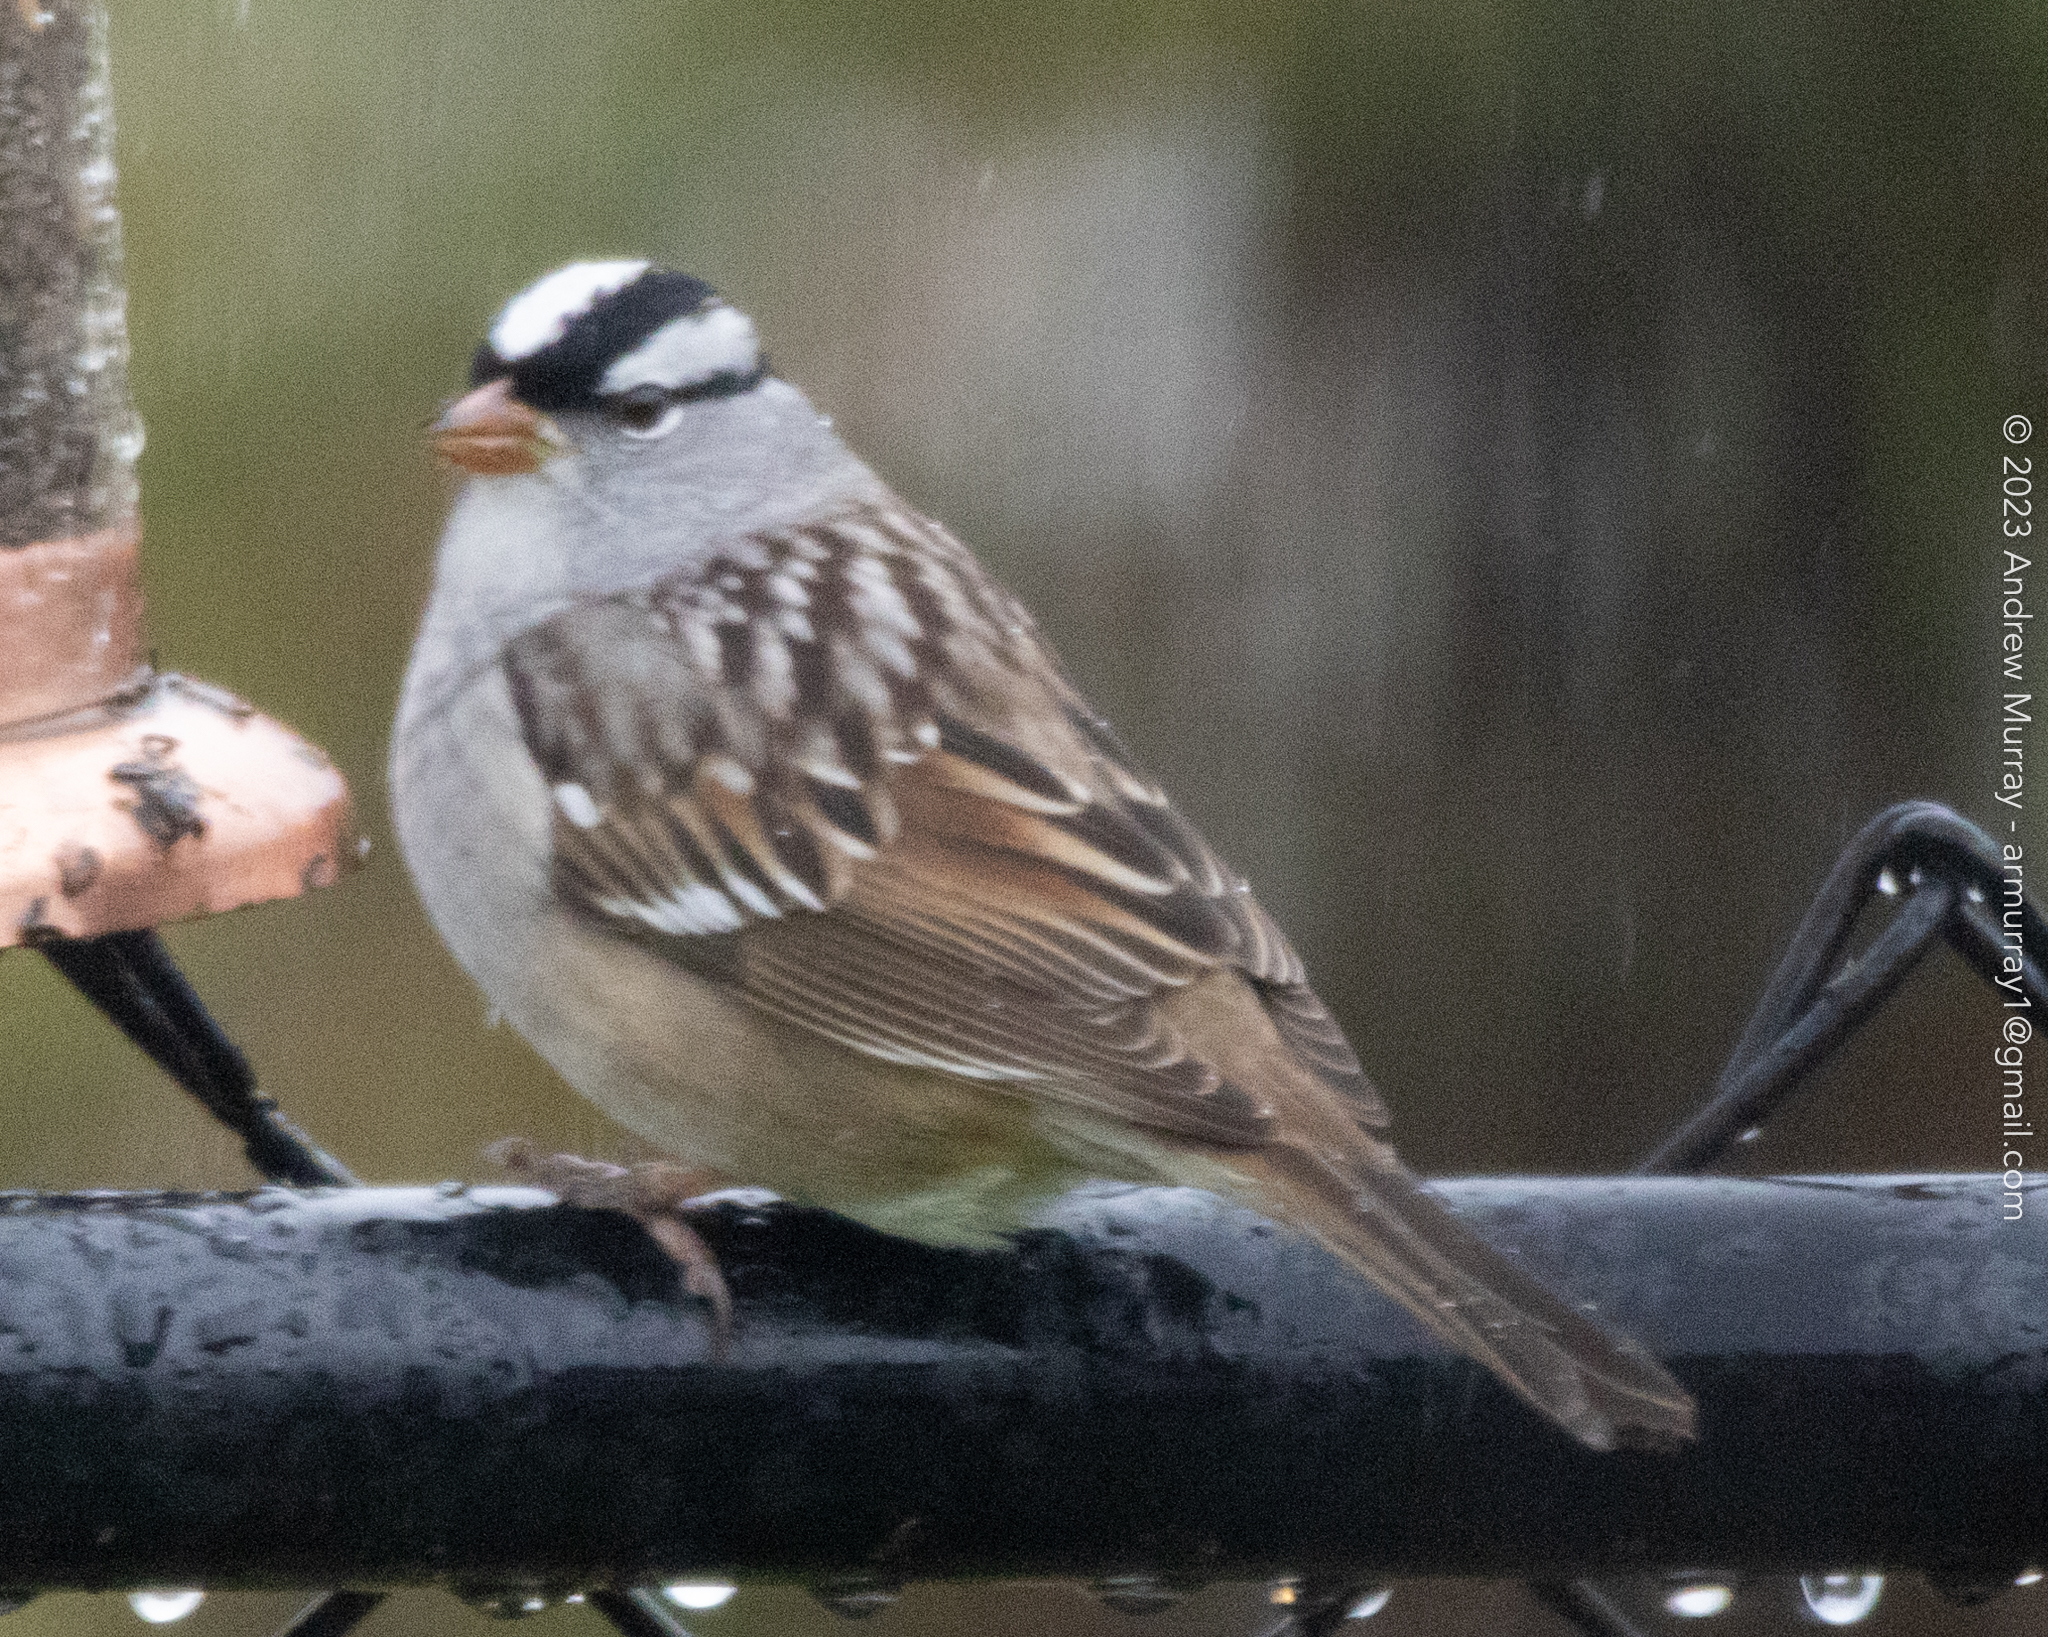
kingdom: Animalia
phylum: Chordata
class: Aves
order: Passeriformes
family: Passerellidae
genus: Zonotrichia
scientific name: Zonotrichia leucophrys
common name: White-crowned sparrow
